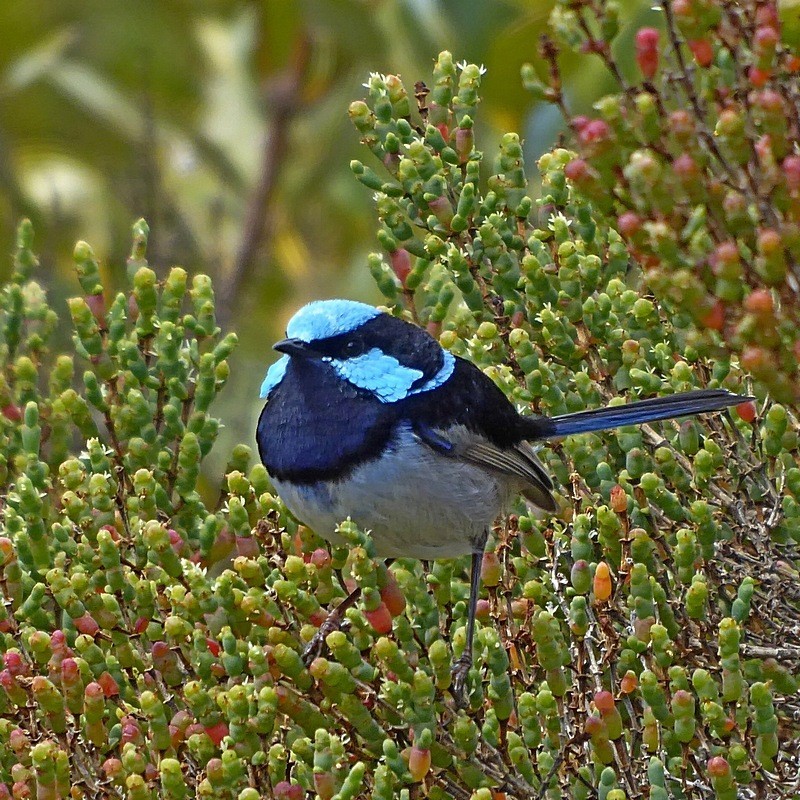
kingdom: Animalia
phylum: Chordata
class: Aves
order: Passeriformes
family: Maluridae
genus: Malurus
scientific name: Malurus cyaneus
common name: Superb fairywren
